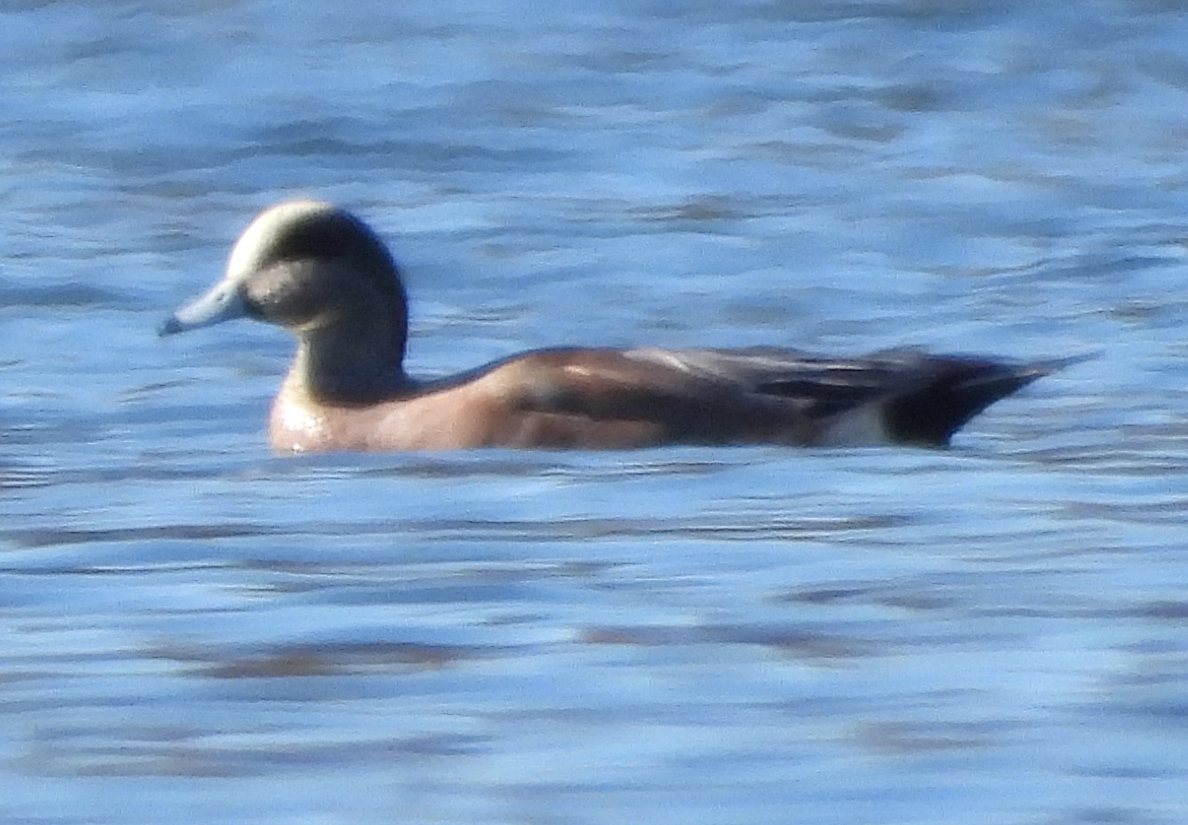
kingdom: Animalia
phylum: Chordata
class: Aves
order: Anseriformes
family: Anatidae
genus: Mareca
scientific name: Mareca americana
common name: American wigeon
